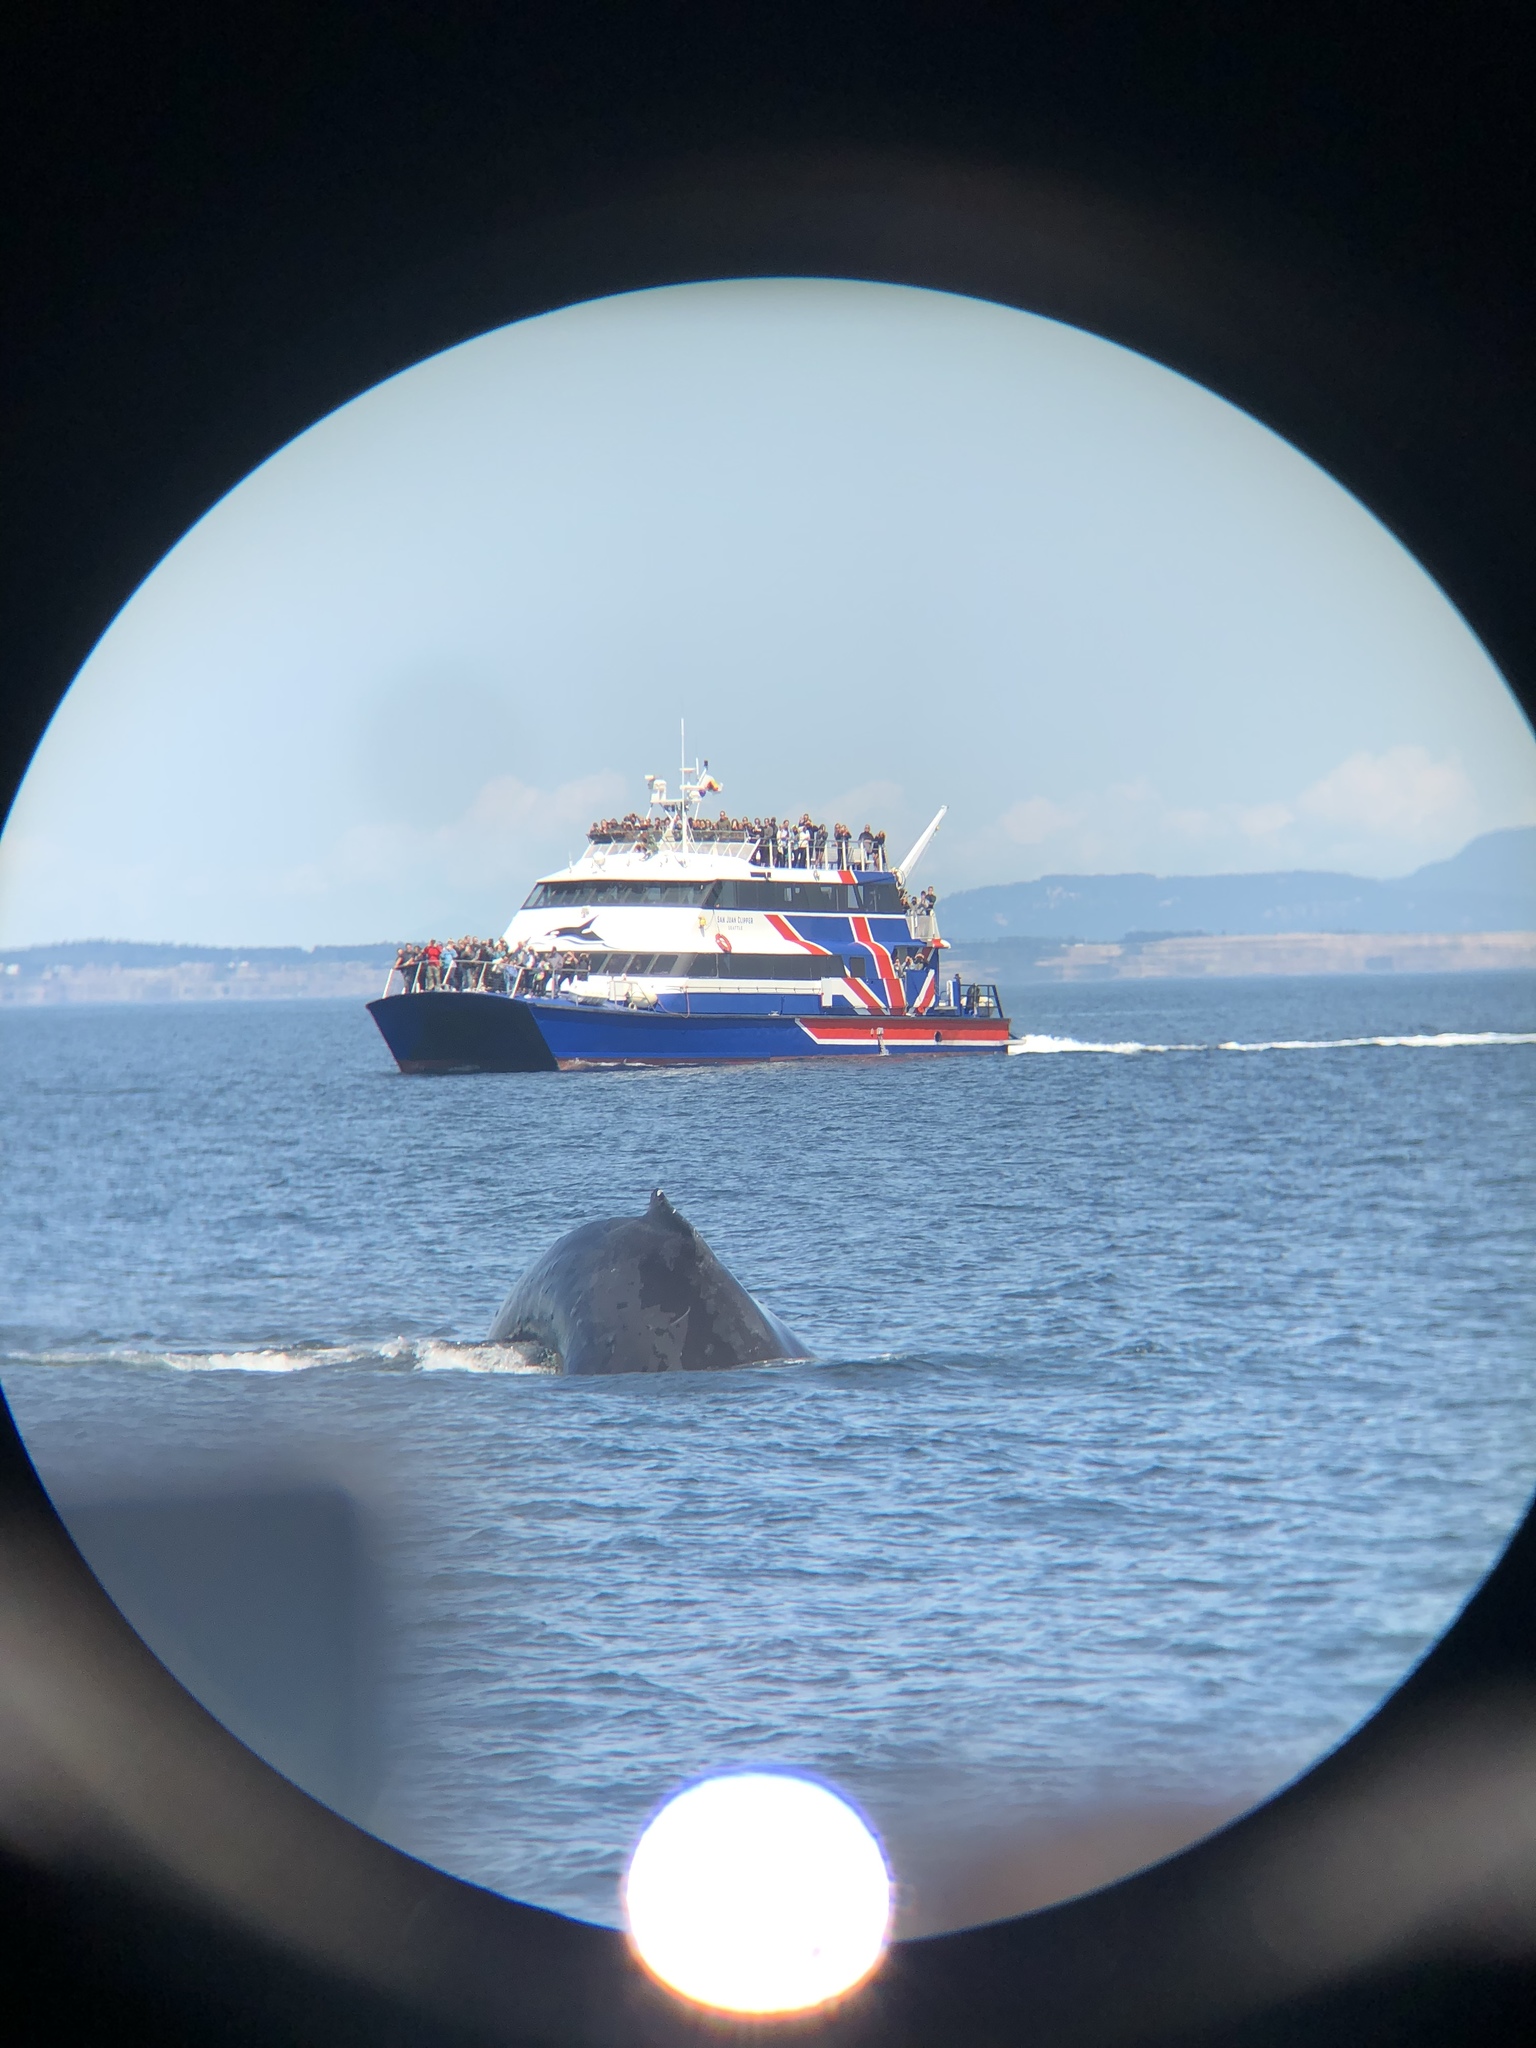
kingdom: Animalia
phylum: Chordata
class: Mammalia
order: Cetacea
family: Balaenopteridae
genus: Megaptera
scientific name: Megaptera novaeangliae
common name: Humpback whale
